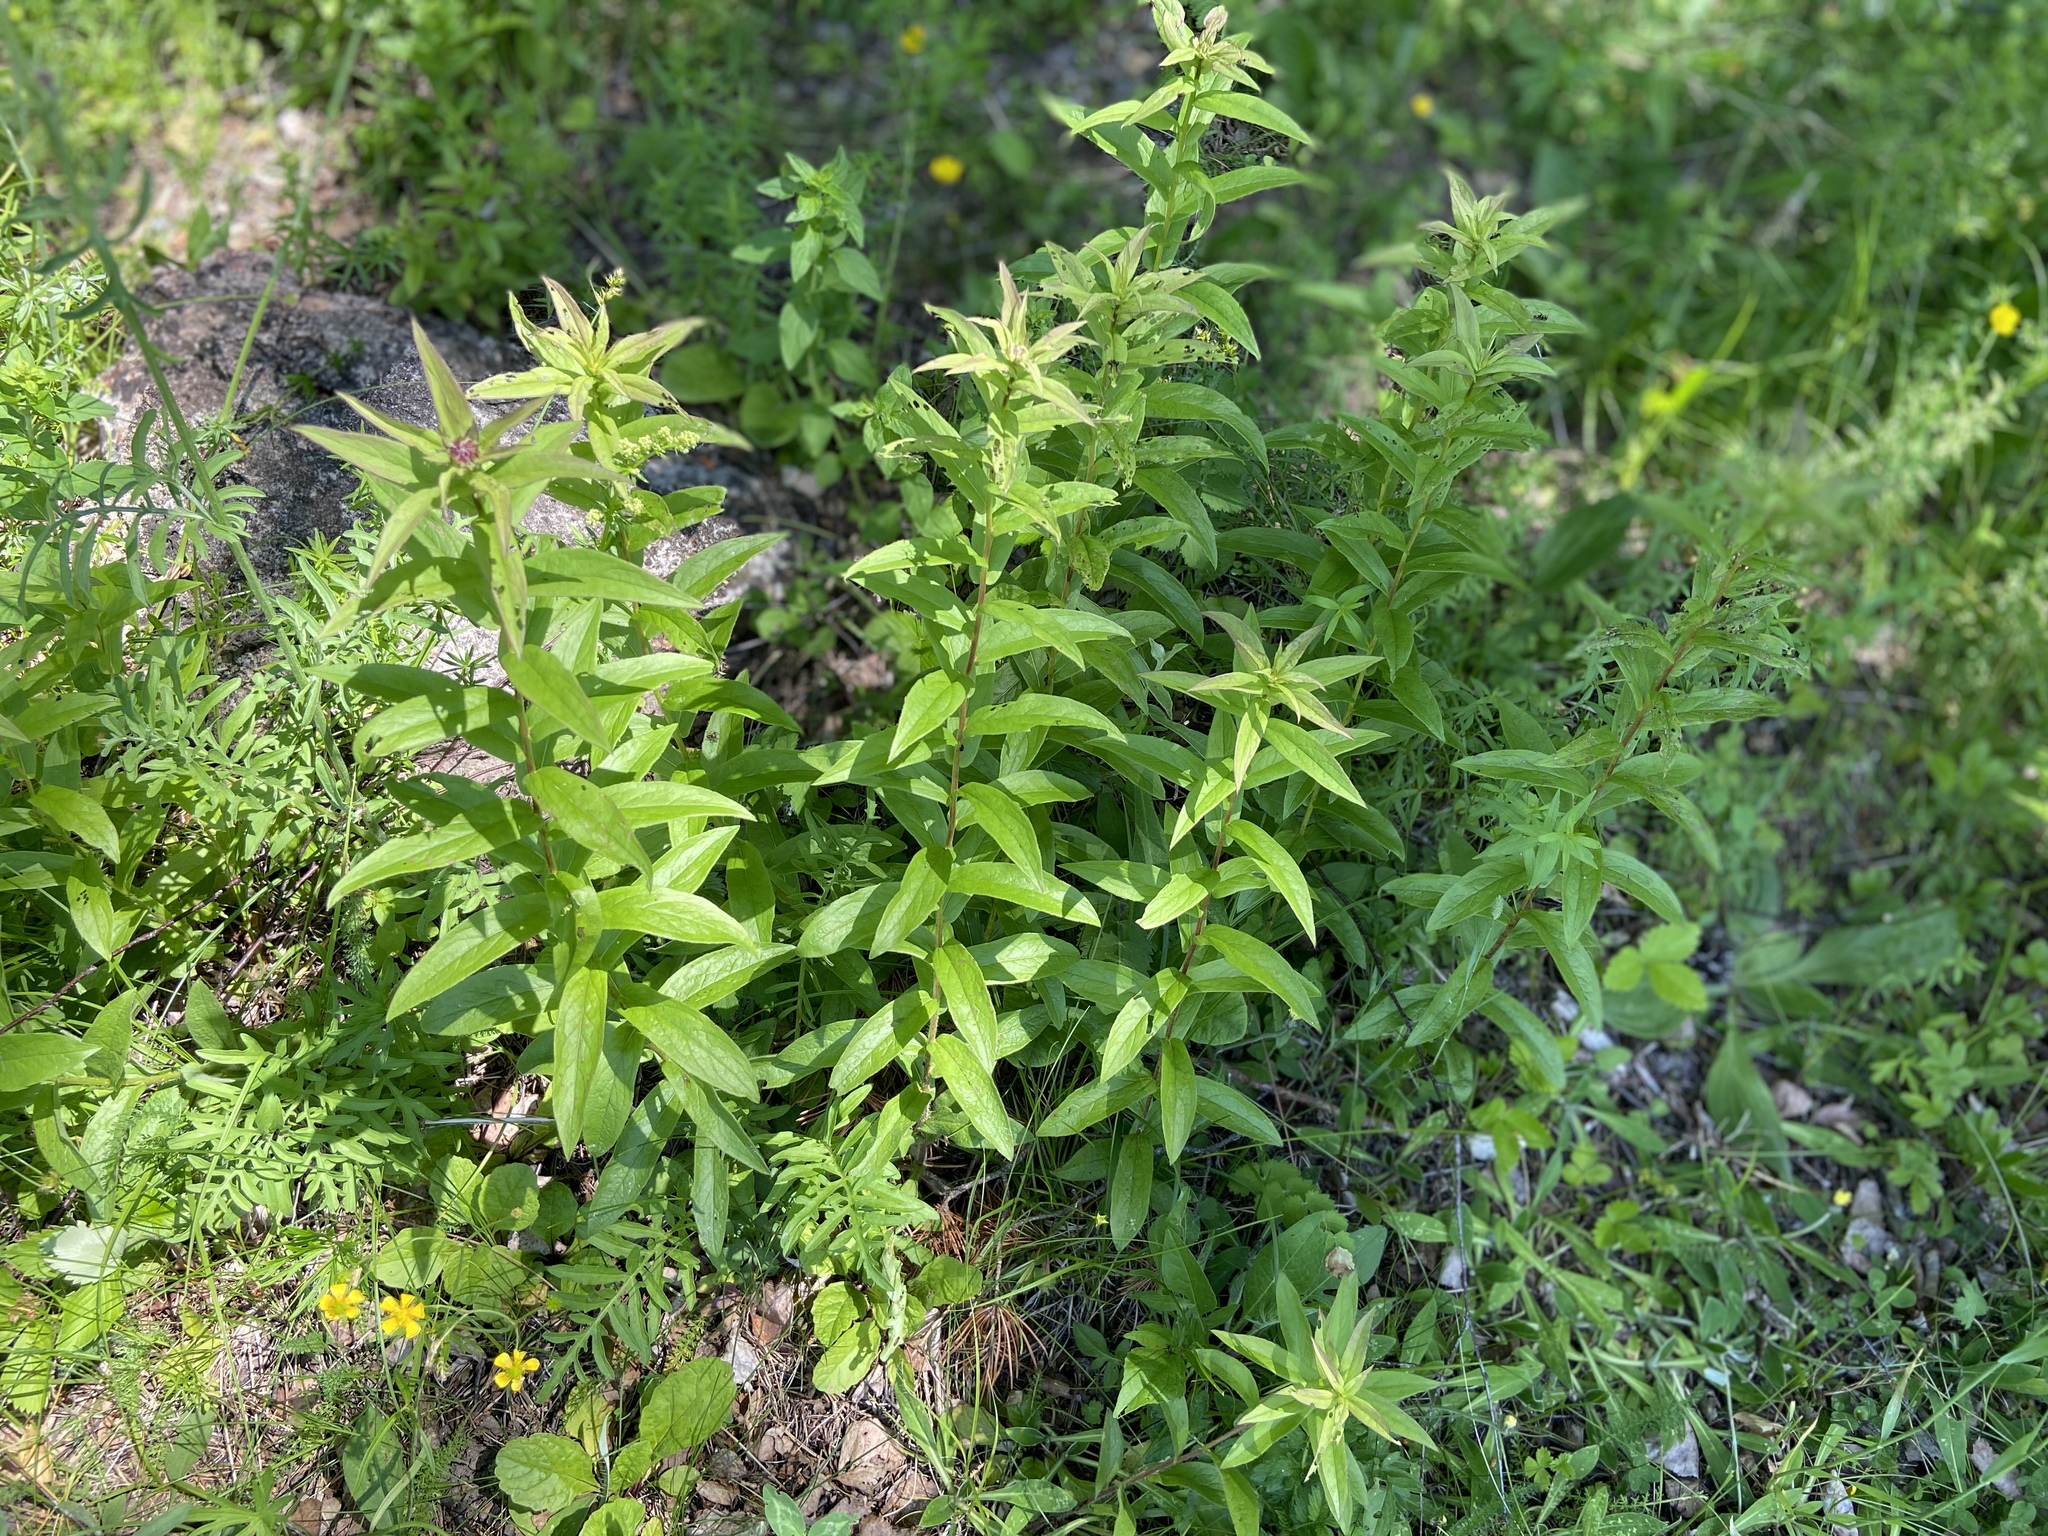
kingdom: Plantae
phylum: Tracheophyta
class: Magnoliopsida
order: Asterales
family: Asteraceae
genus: Pentanema
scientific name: Pentanema salicinum
